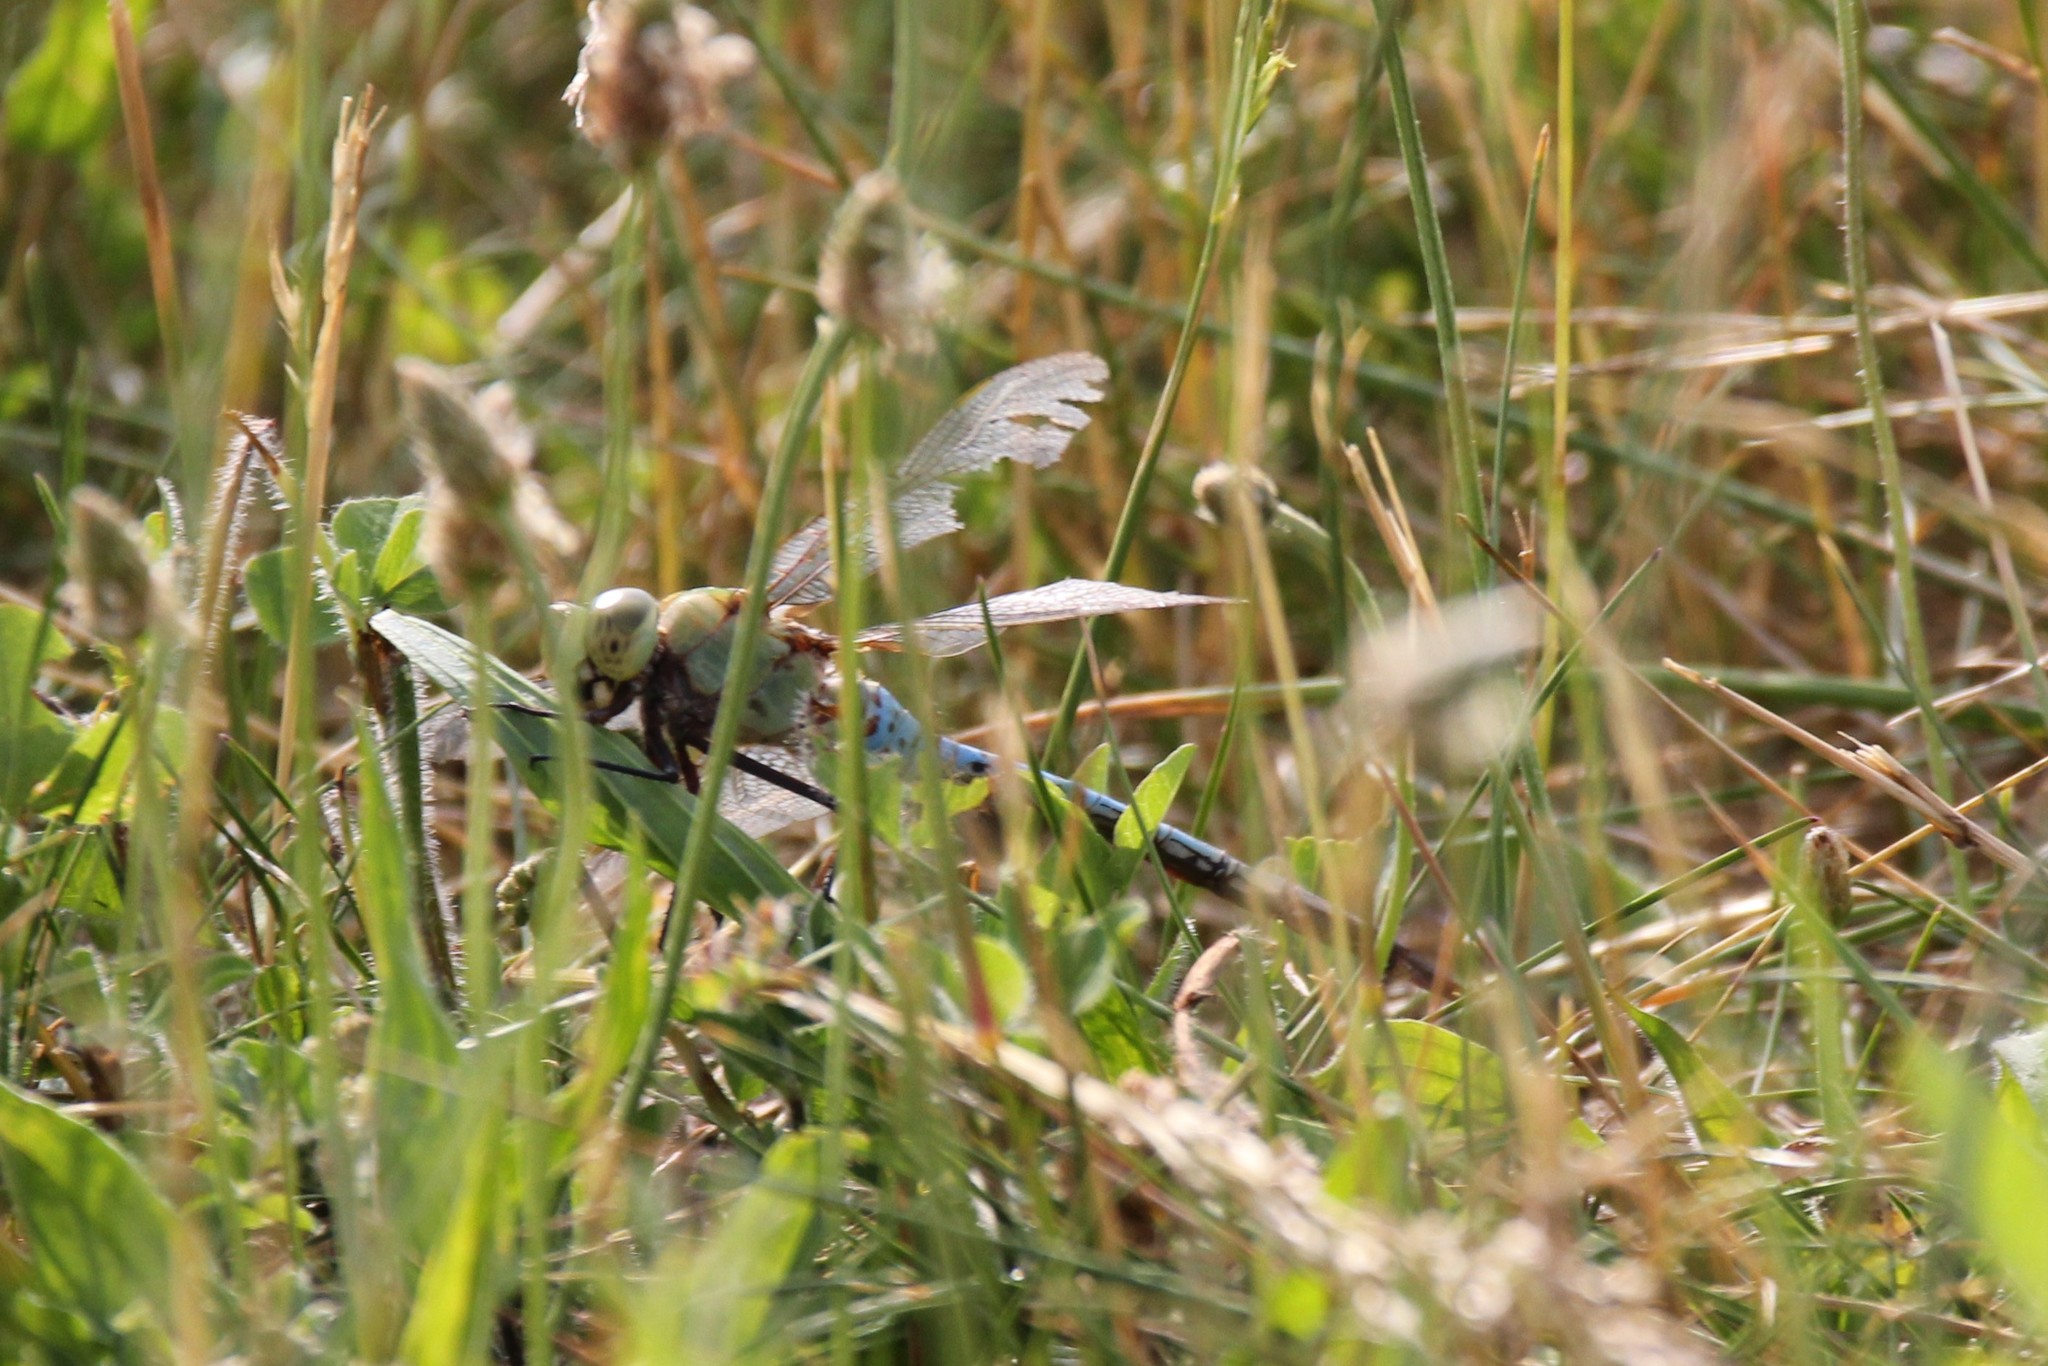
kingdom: Animalia
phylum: Arthropoda
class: Insecta
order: Odonata
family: Aeshnidae
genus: Anax
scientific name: Anax junius
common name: Common green darner
